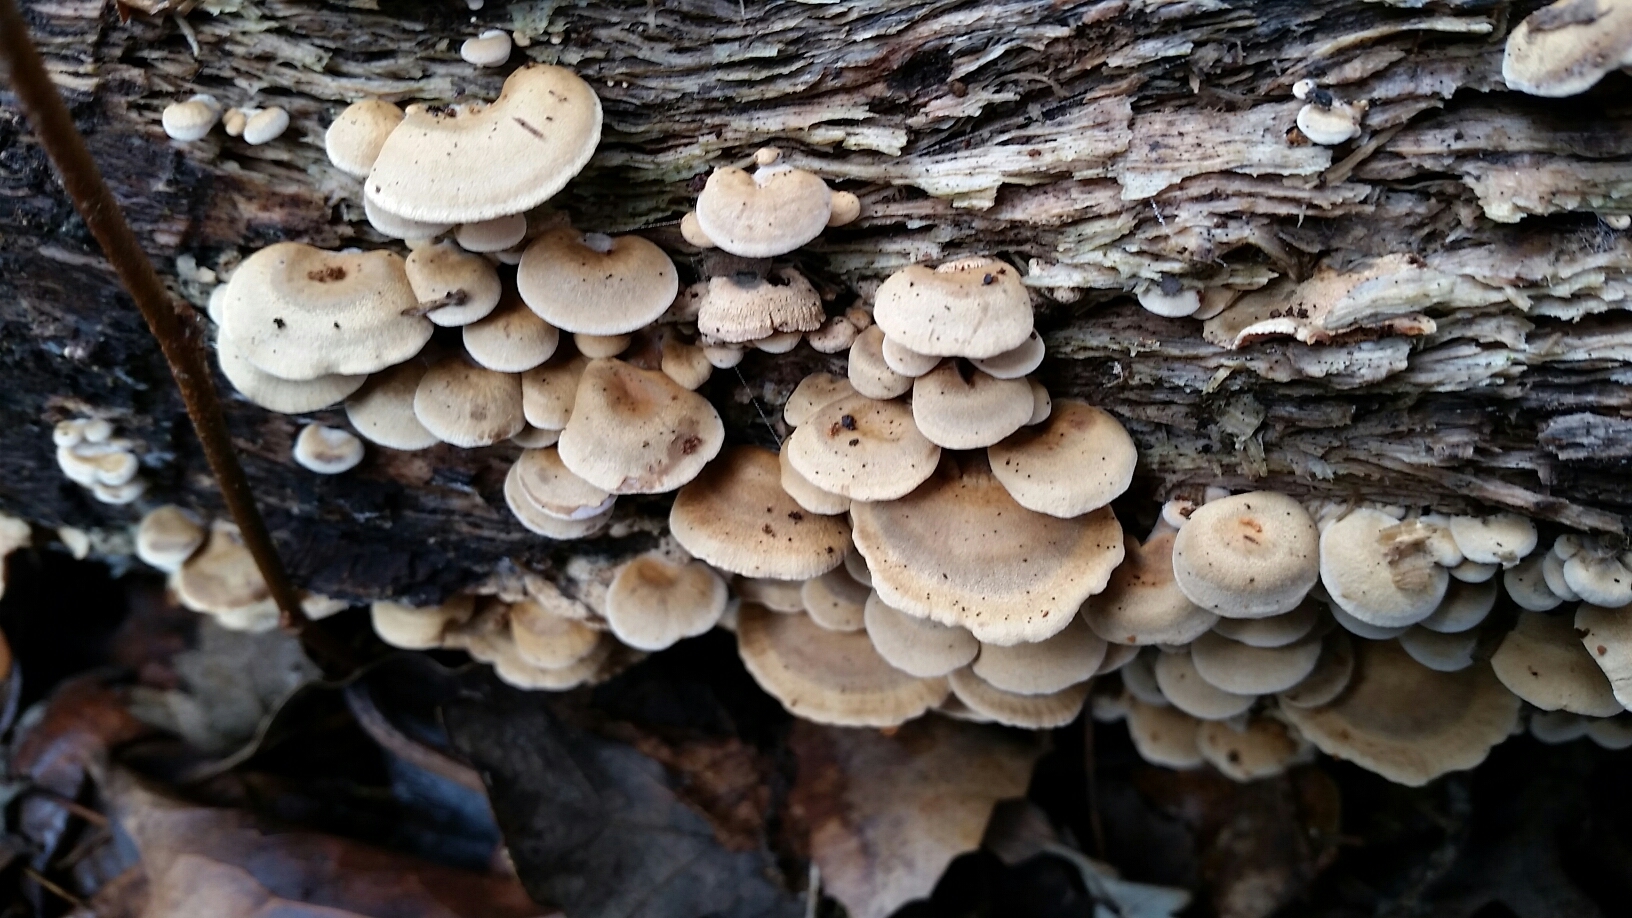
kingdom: Fungi
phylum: Basidiomycota
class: Agaricomycetes
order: Agaricales
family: Mycenaceae
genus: Panellus
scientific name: Panellus stipticus
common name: Bitter oysterling
